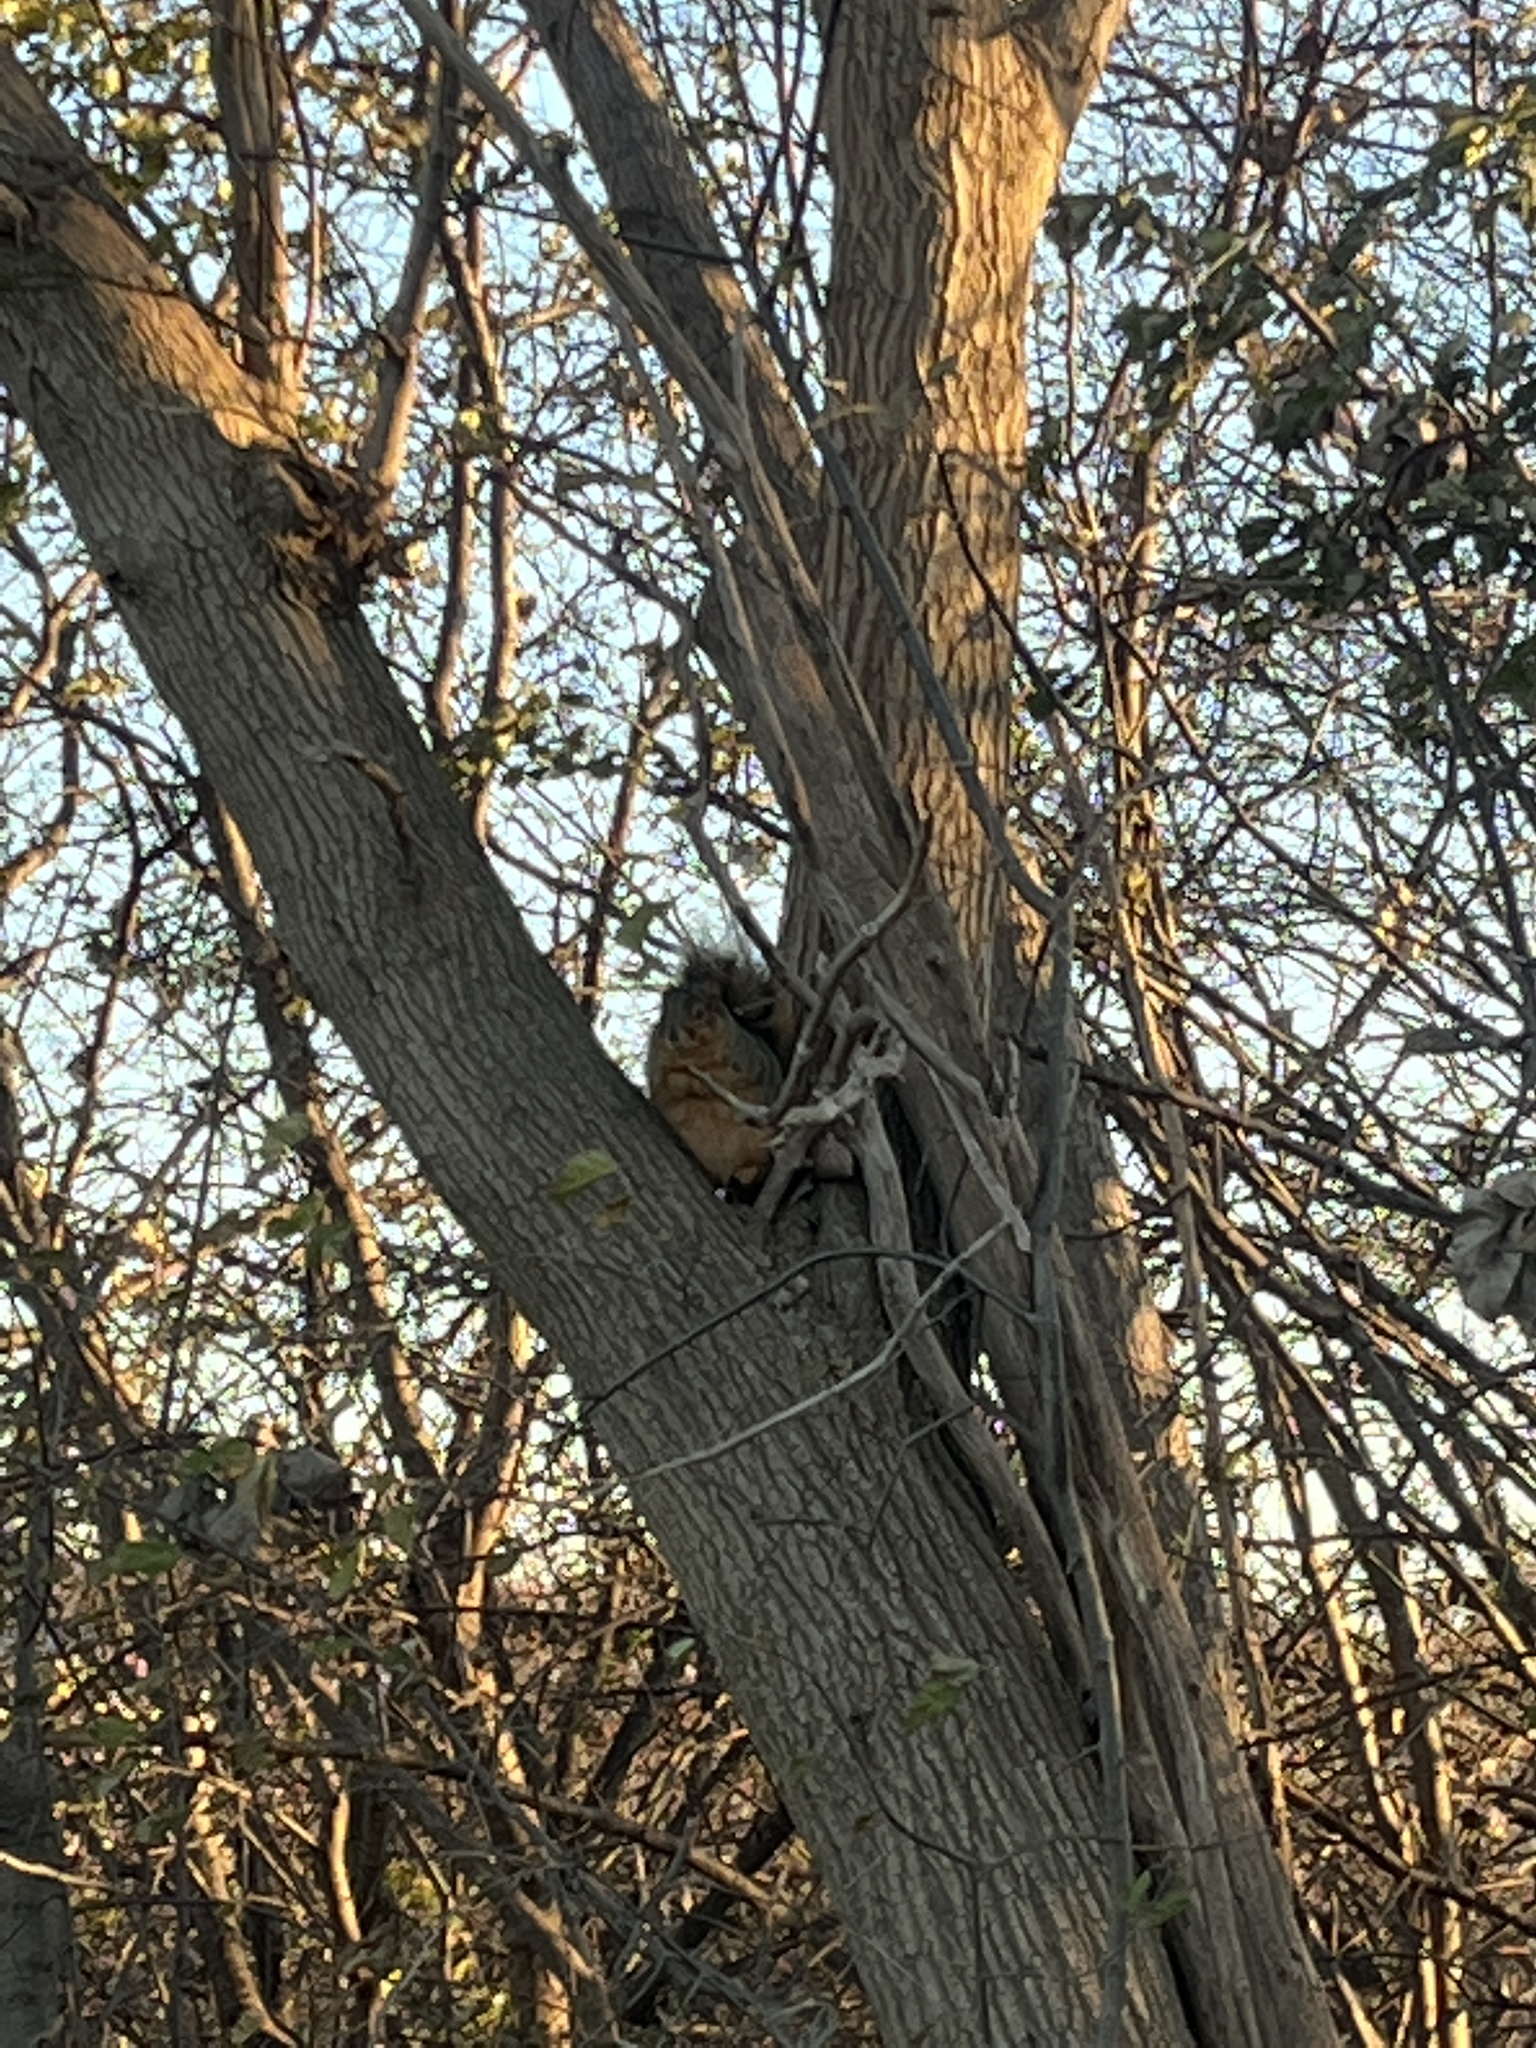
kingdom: Animalia
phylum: Chordata
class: Mammalia
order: Rodentia
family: Sciuridae
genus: Sciurus
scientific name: Sciurus niger
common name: Fox squirrel
